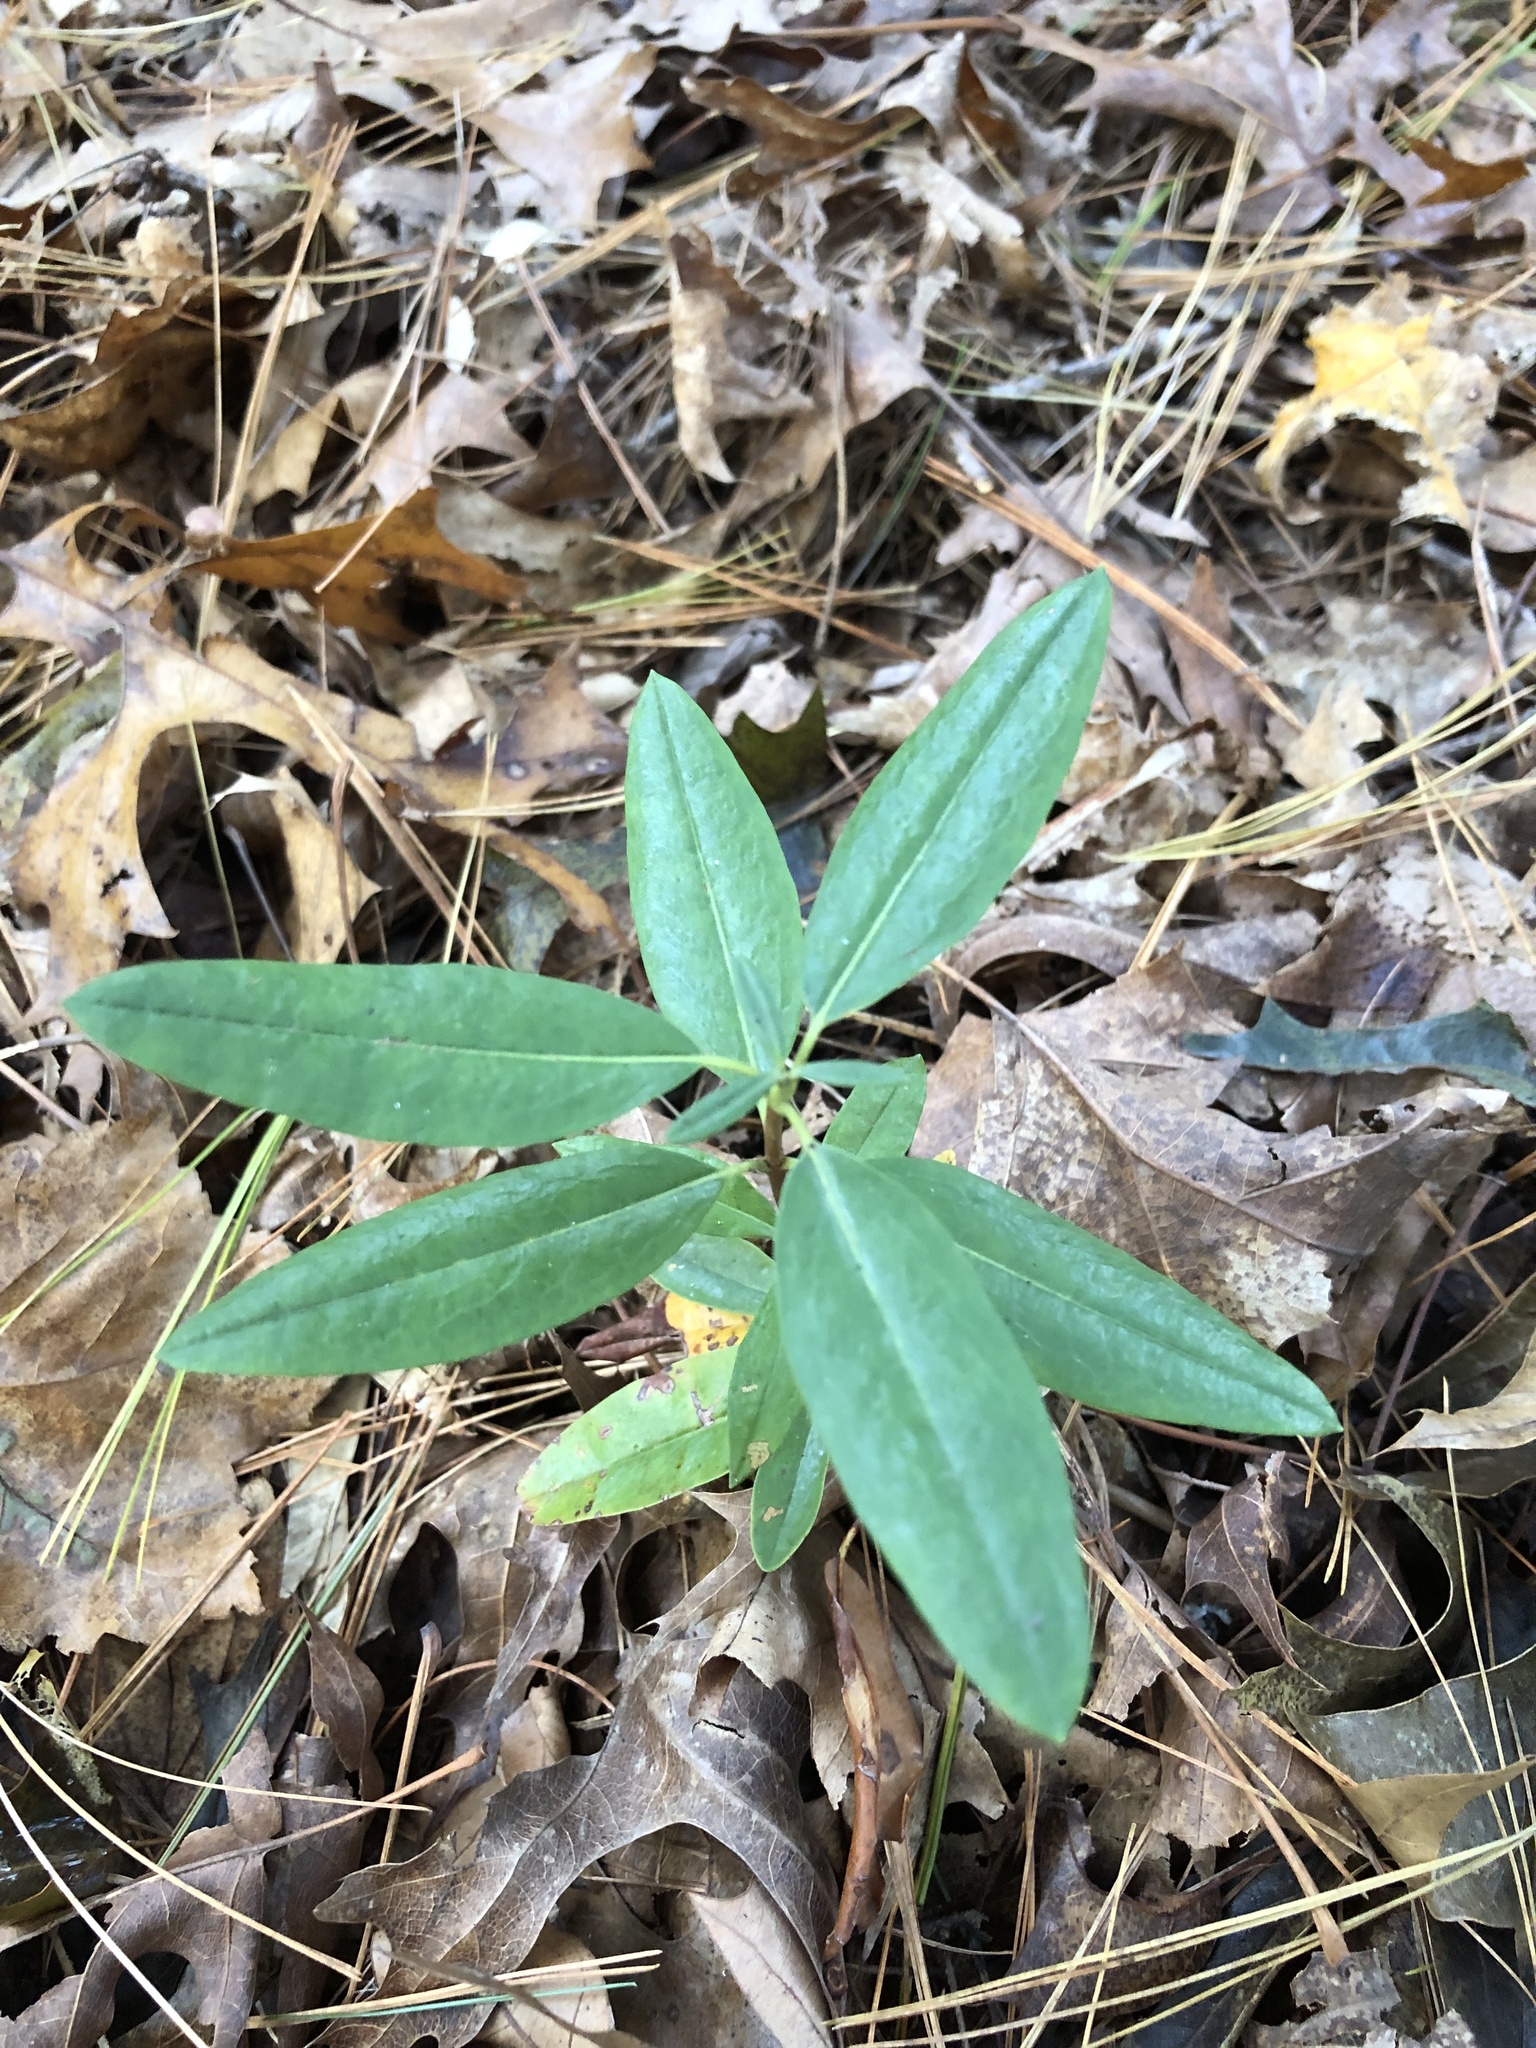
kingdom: Plantae
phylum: Tracheophyta
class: Magnoliopsida
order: Ericales
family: Ericaceae
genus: Kalmia
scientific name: Kalmia angustifolia
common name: Sheep-laurel
